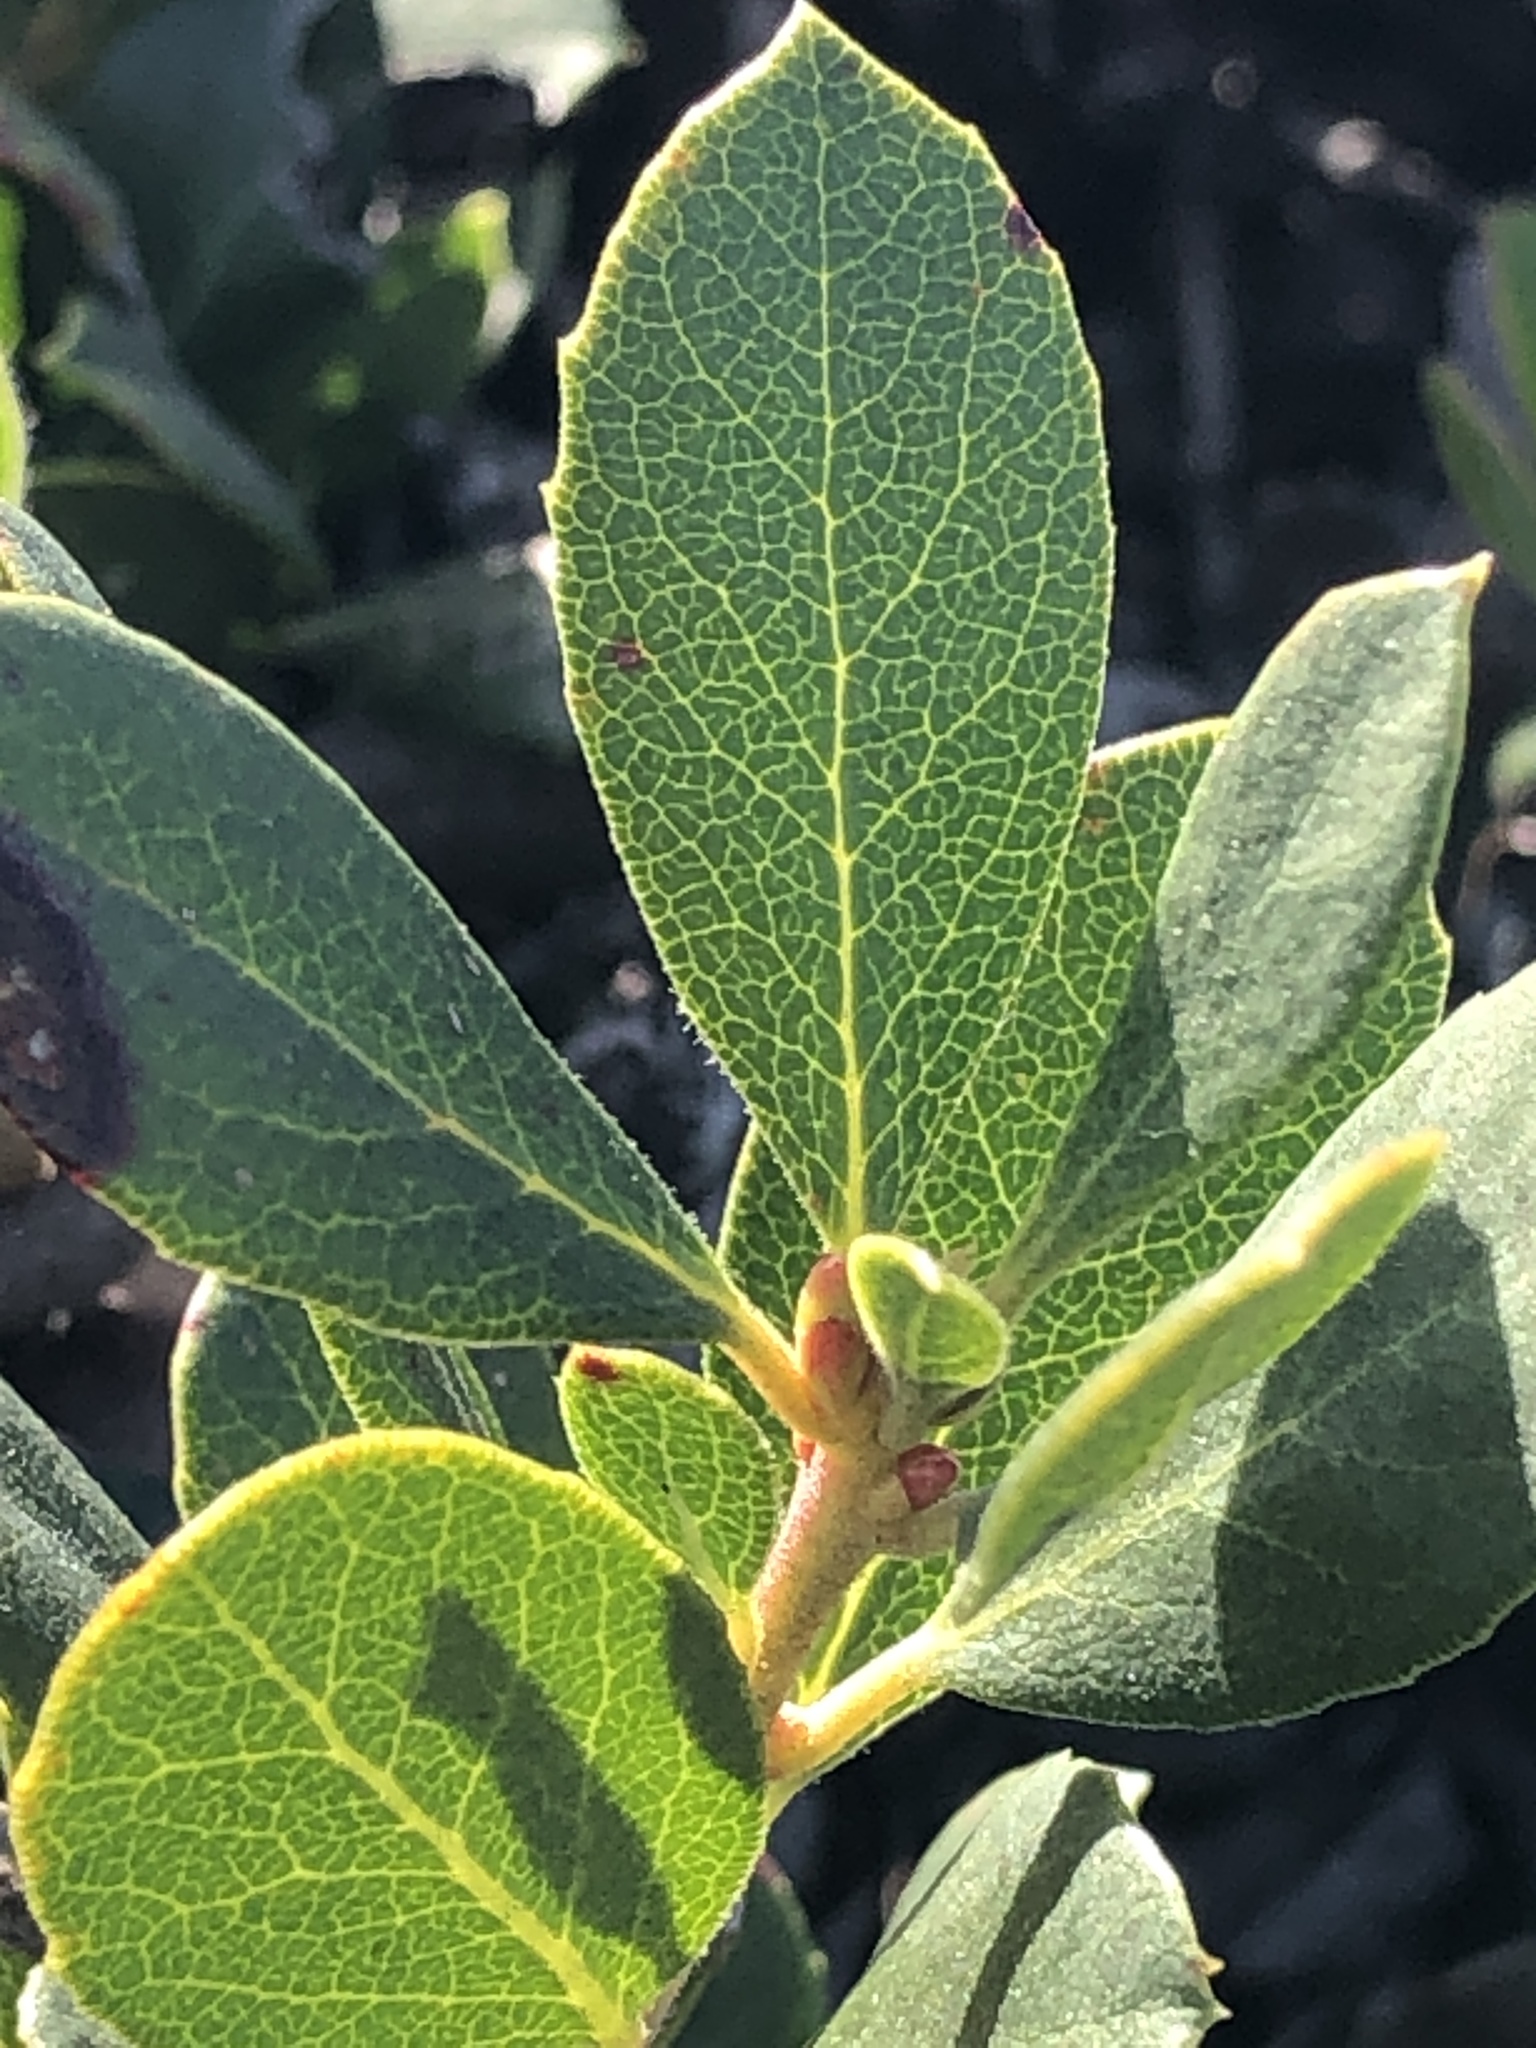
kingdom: Plantae
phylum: Tracheophyta
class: Magnoliopsida
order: Ericales
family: Ericaceae
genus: Arctostaphylos
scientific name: Arctostaphylos pacifica
